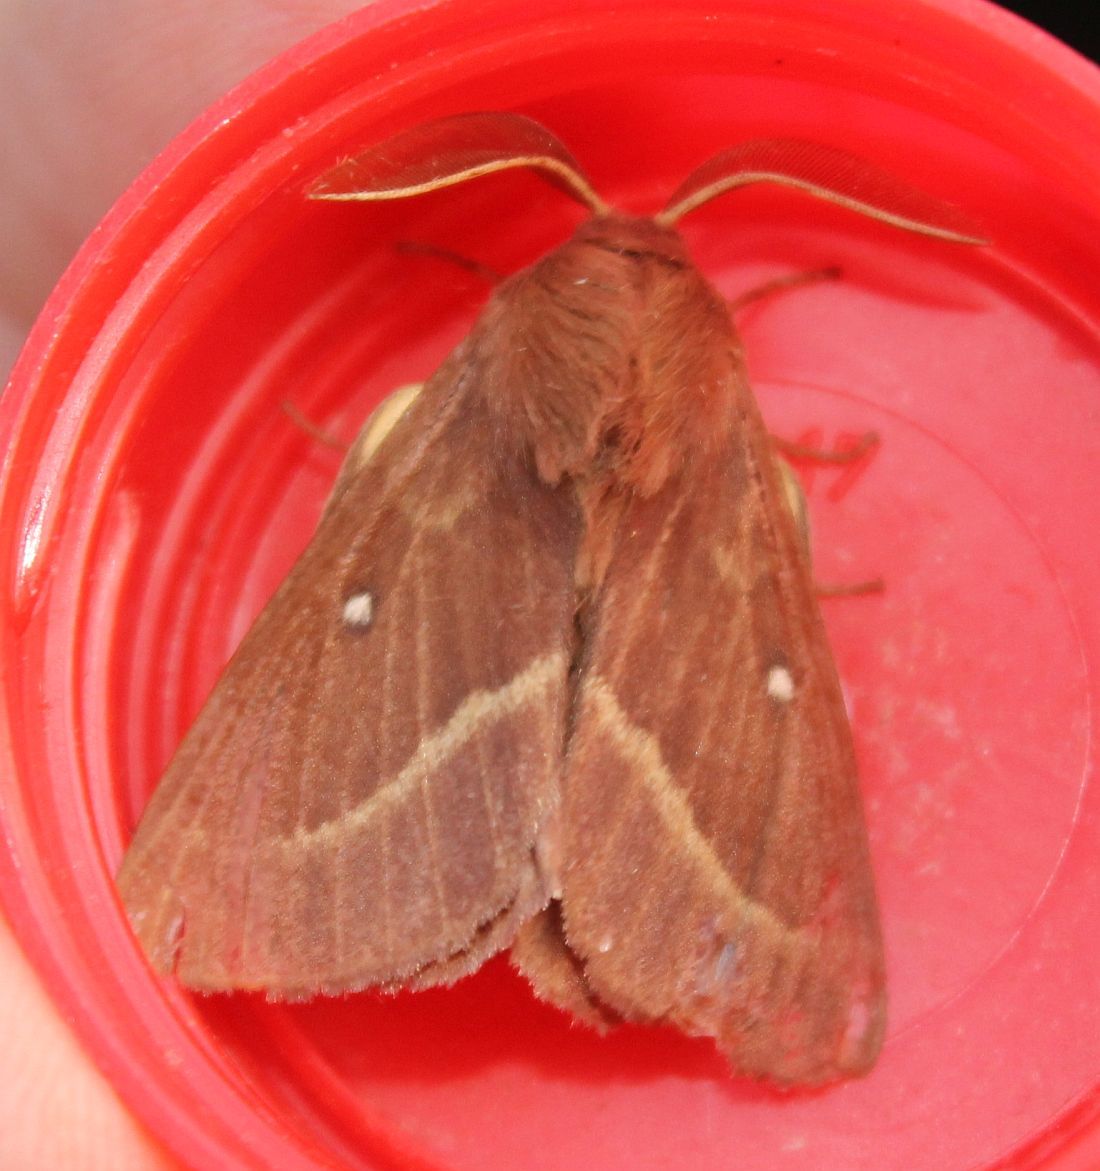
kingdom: Animalia
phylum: Arthropoda
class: Insecta
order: Lepidoptera
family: Lasiocampidae
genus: Lasiocampa
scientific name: Lasiocampa trifolii
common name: Grass eggar
